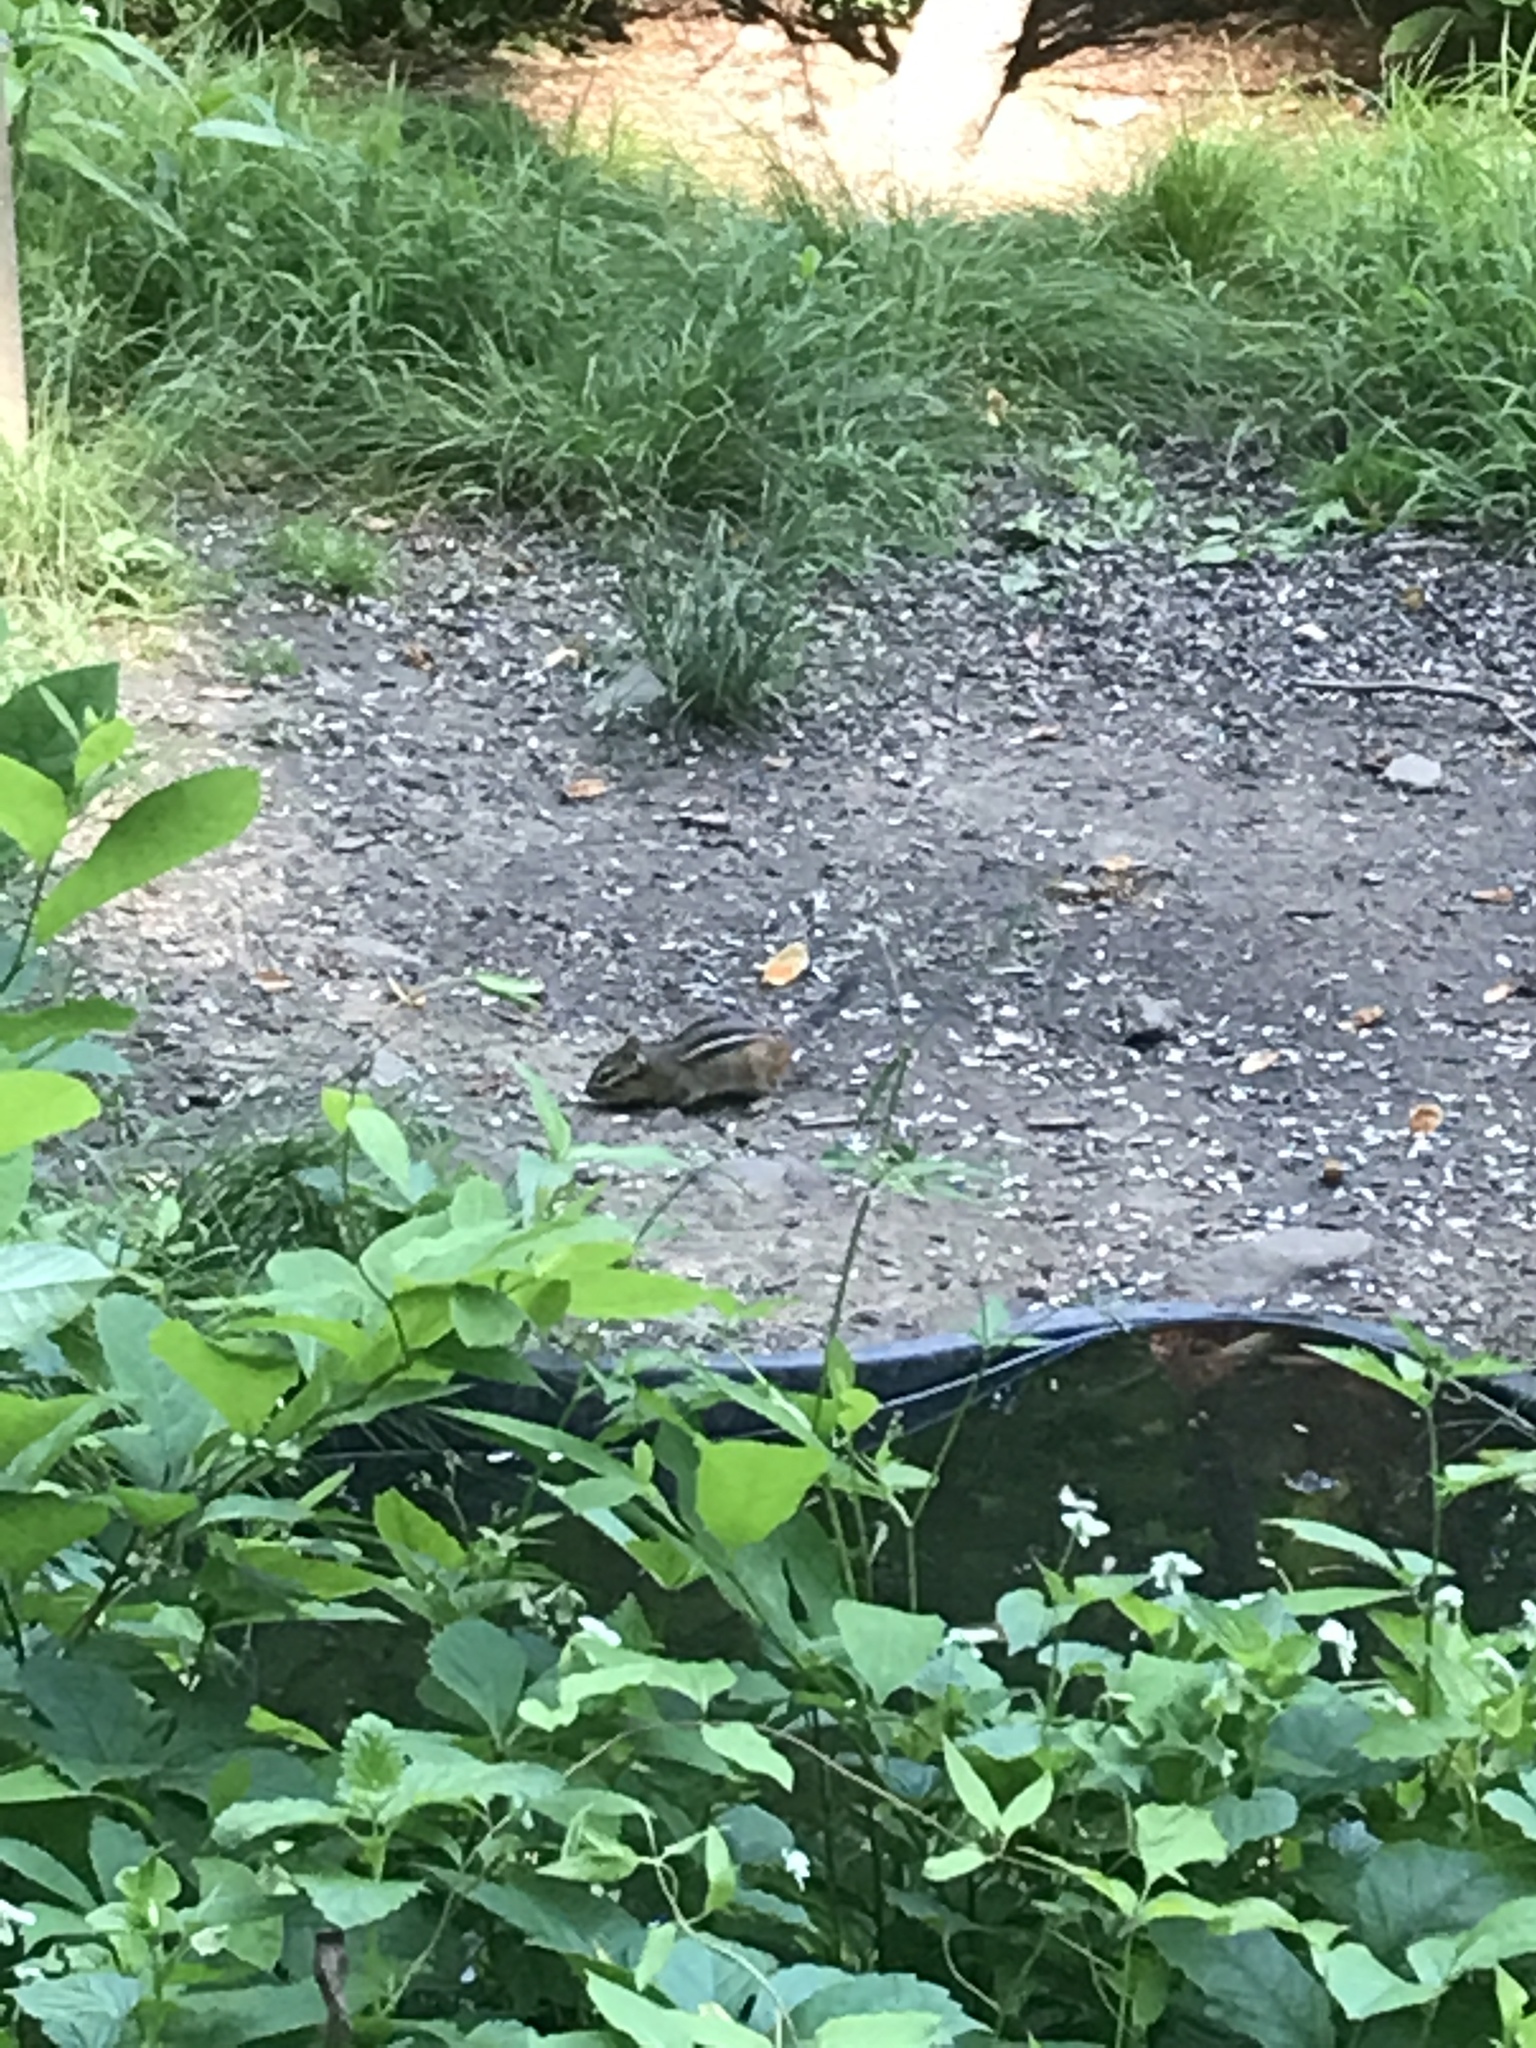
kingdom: Animalia
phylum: Chordata
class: Mammalia
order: Rodentia
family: Sciuridae
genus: Tamias
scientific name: Tamias striatus
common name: Eastern chipmunk
